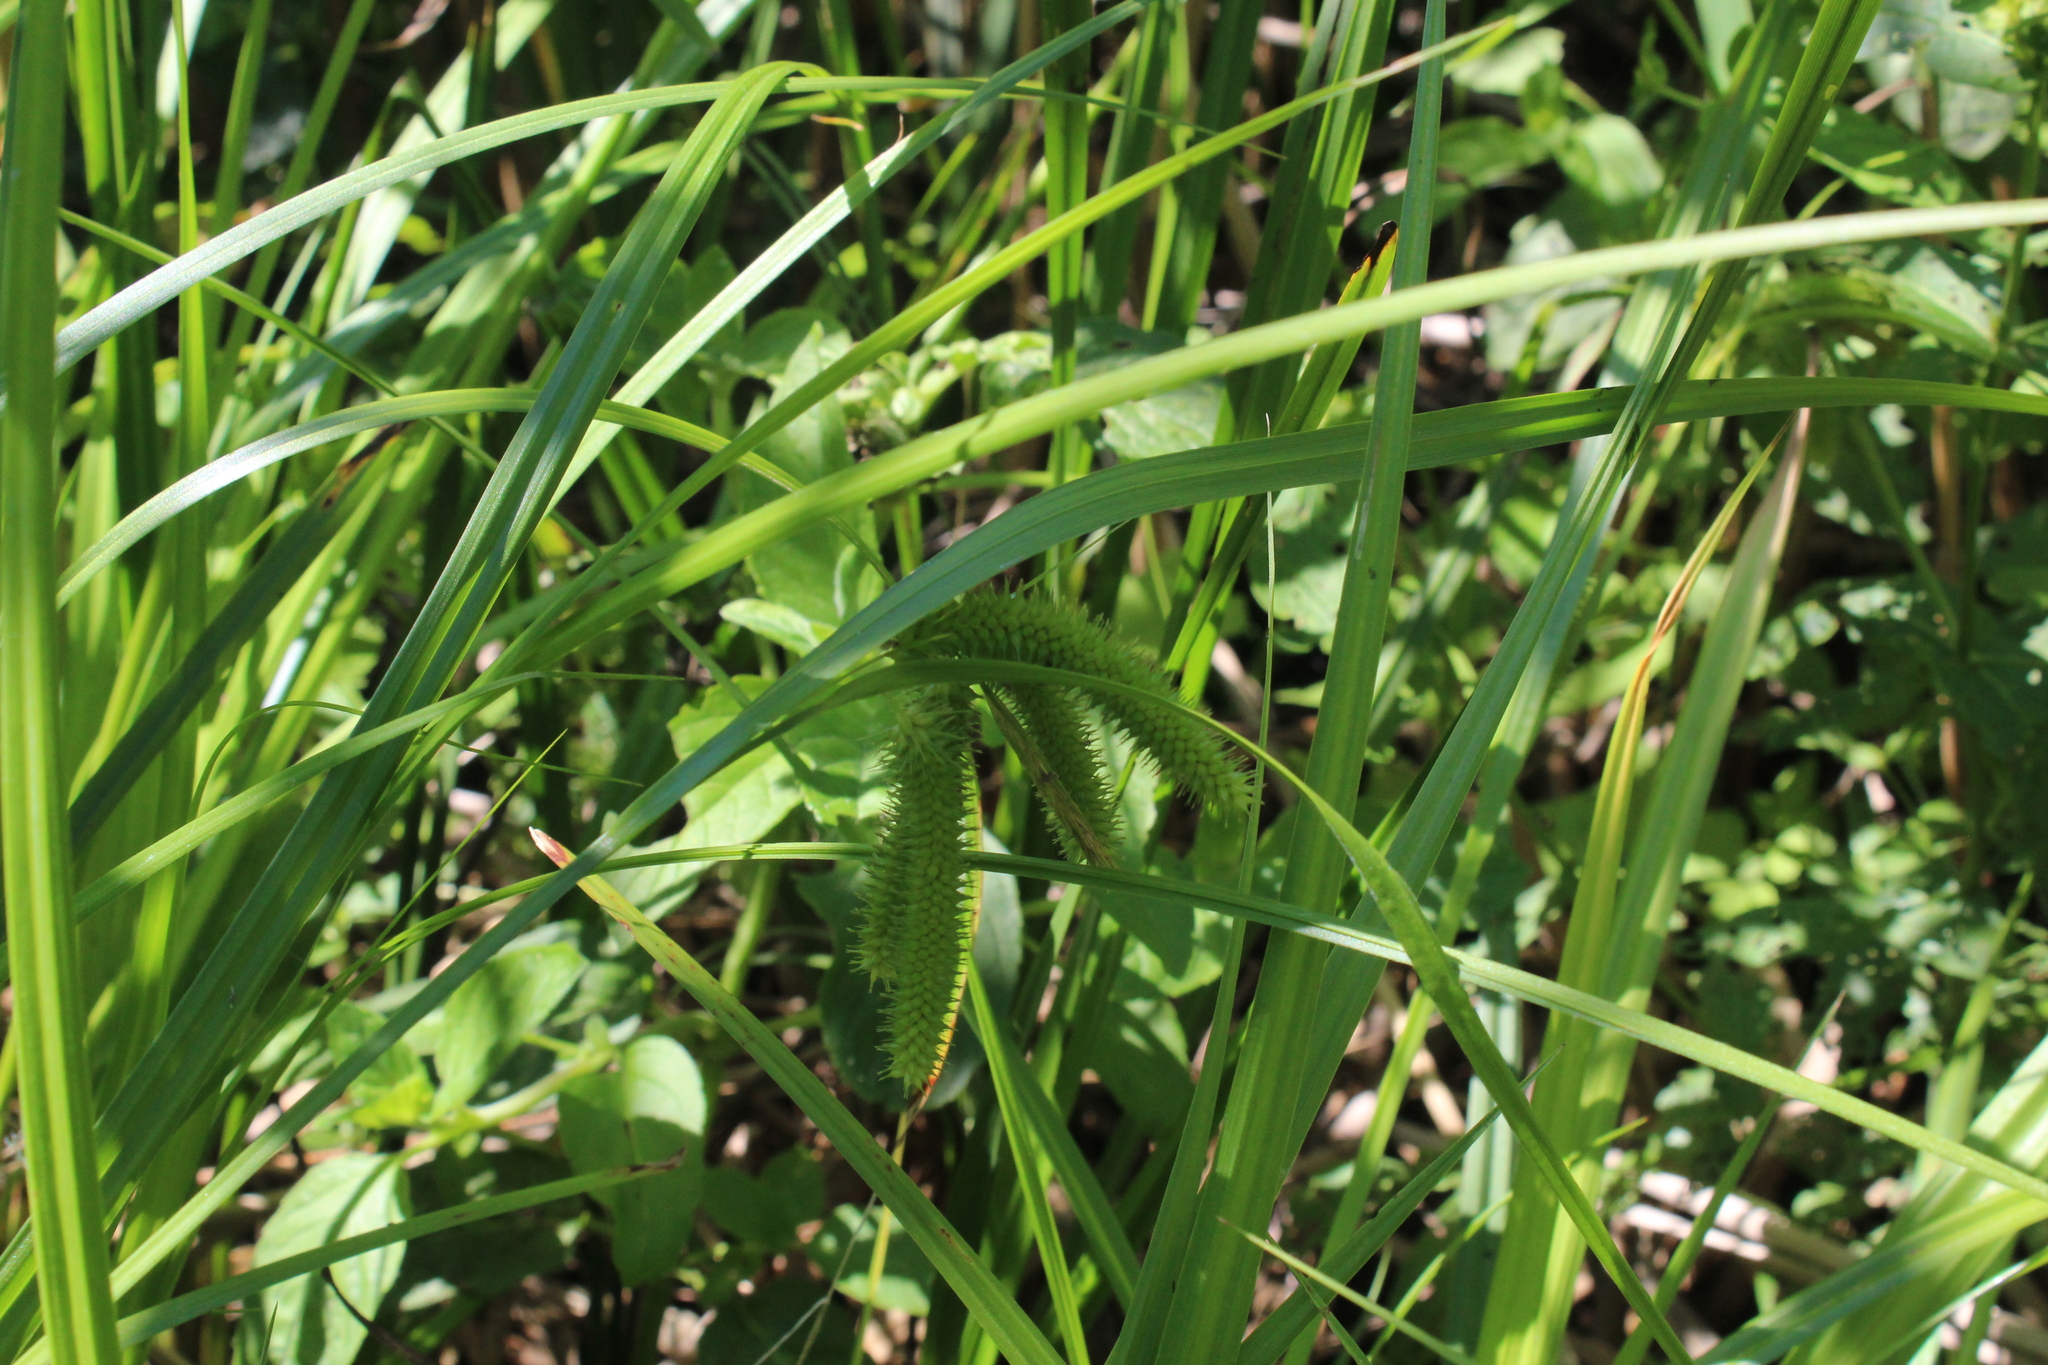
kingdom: Plantae
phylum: Tracheophyta
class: Liliopsida
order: Poales
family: Cyperaceae
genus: Carex
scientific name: Carex pseudocyperus
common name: Cyperus sedge
